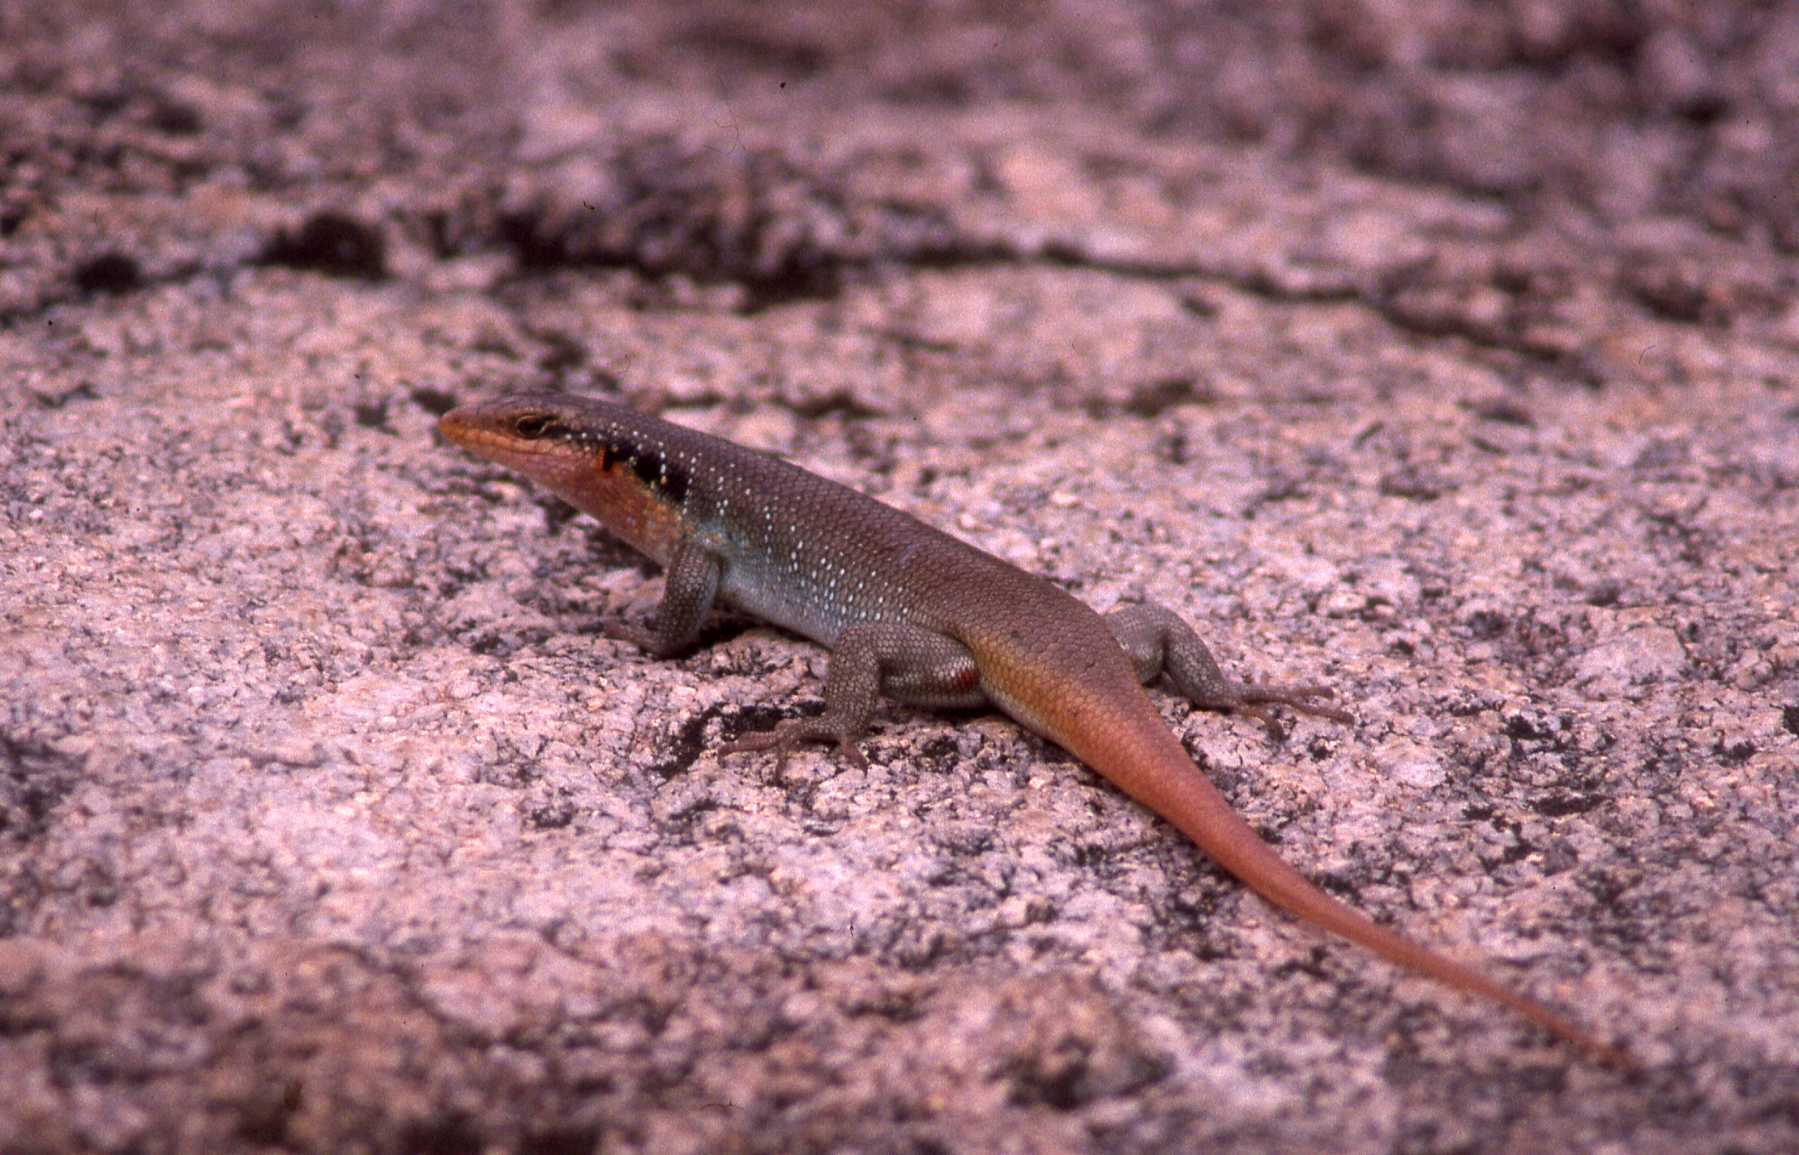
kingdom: Animalia
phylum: Chordata
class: Squamata
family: Scincidae
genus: Trachylepis
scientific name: Trachylepis margaritifera
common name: Rainbow skink
